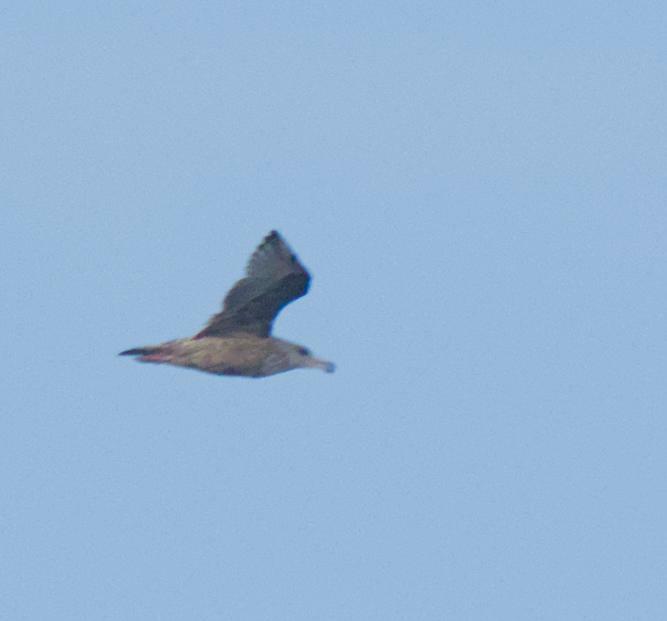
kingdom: Animalia
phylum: Chordata
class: Aves
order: Charadriiformes
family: Laridae
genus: Larus
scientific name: Larus argentatus
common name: Herring gull
